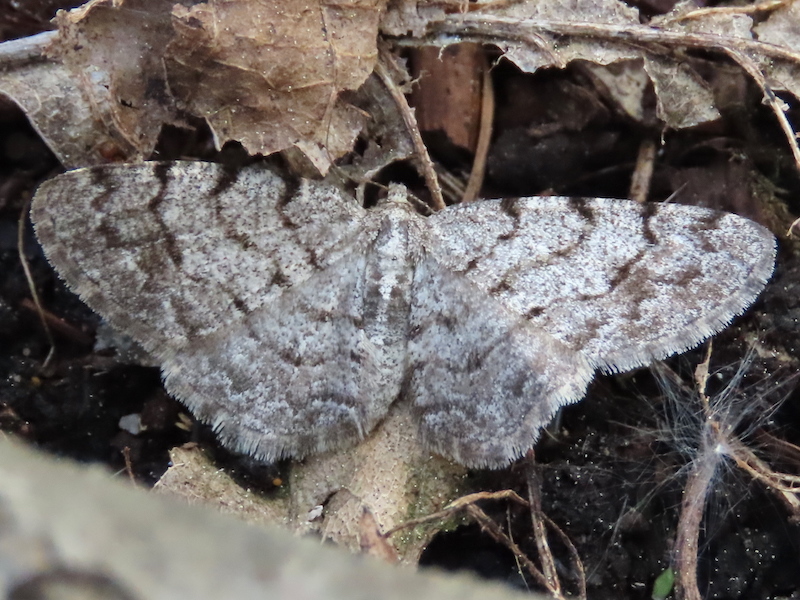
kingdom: Animalia
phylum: Arthropoda
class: Insecta
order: Lepidoptera
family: Geometridae
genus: Aethalura
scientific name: Aethalura punctulata
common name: Grey birch
